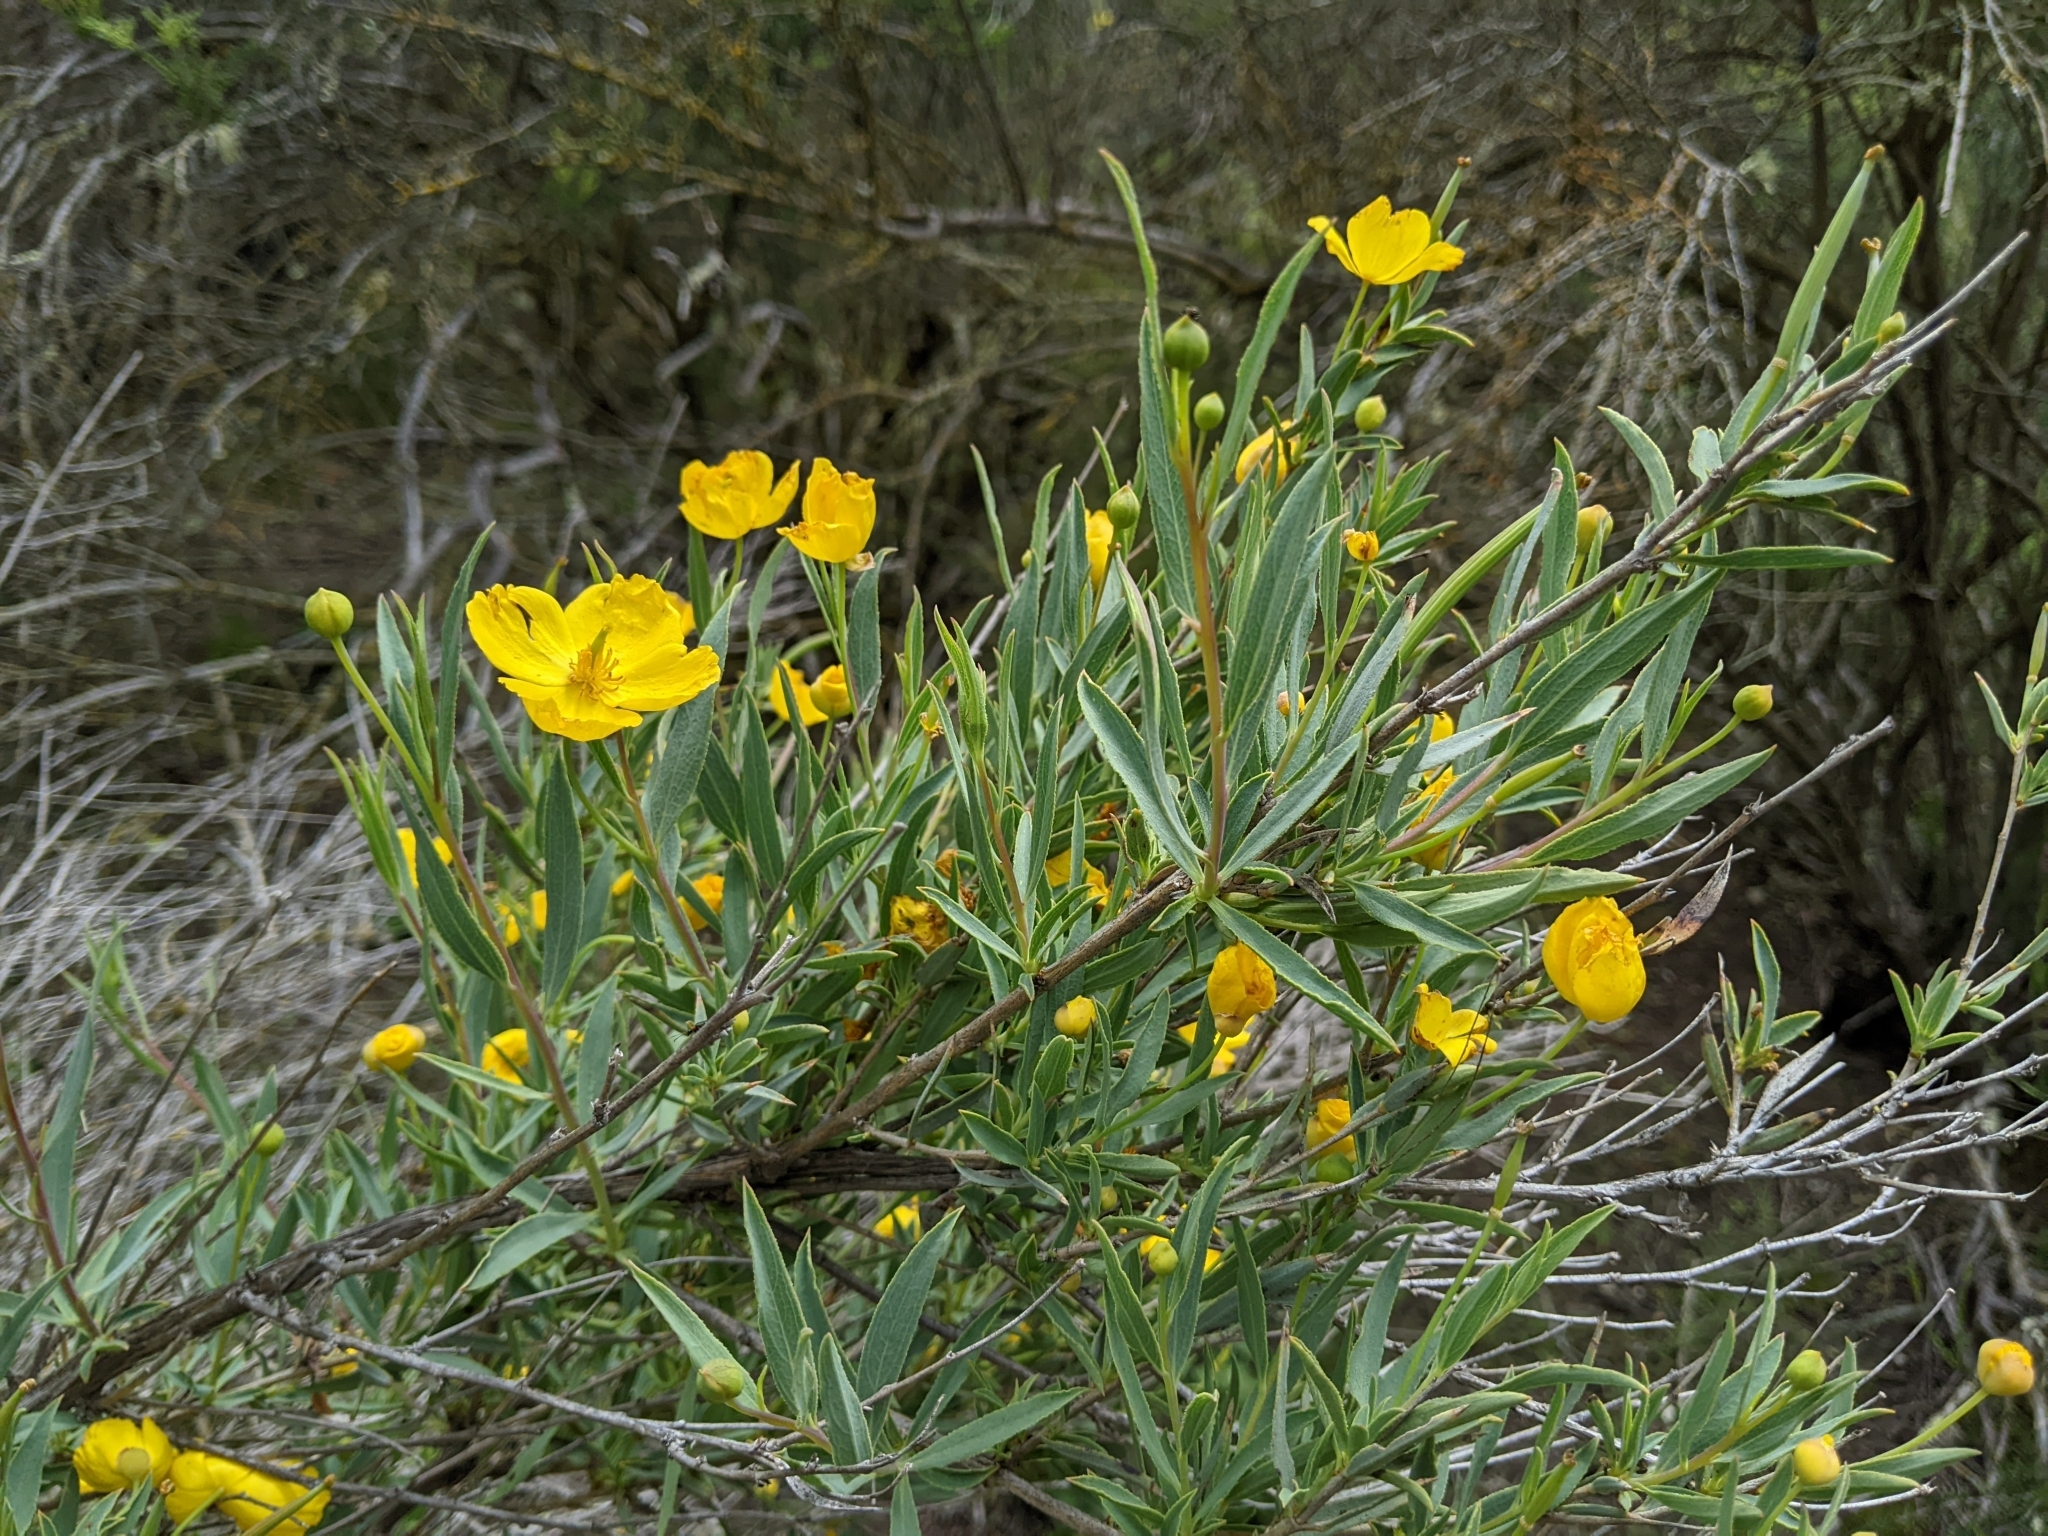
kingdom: Plantae
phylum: Tracheophyta
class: Magnoliopsida
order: Ranunculales
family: Papaveraceae
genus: Dendromecon
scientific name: Dendromecon rigida
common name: Tree poppy
